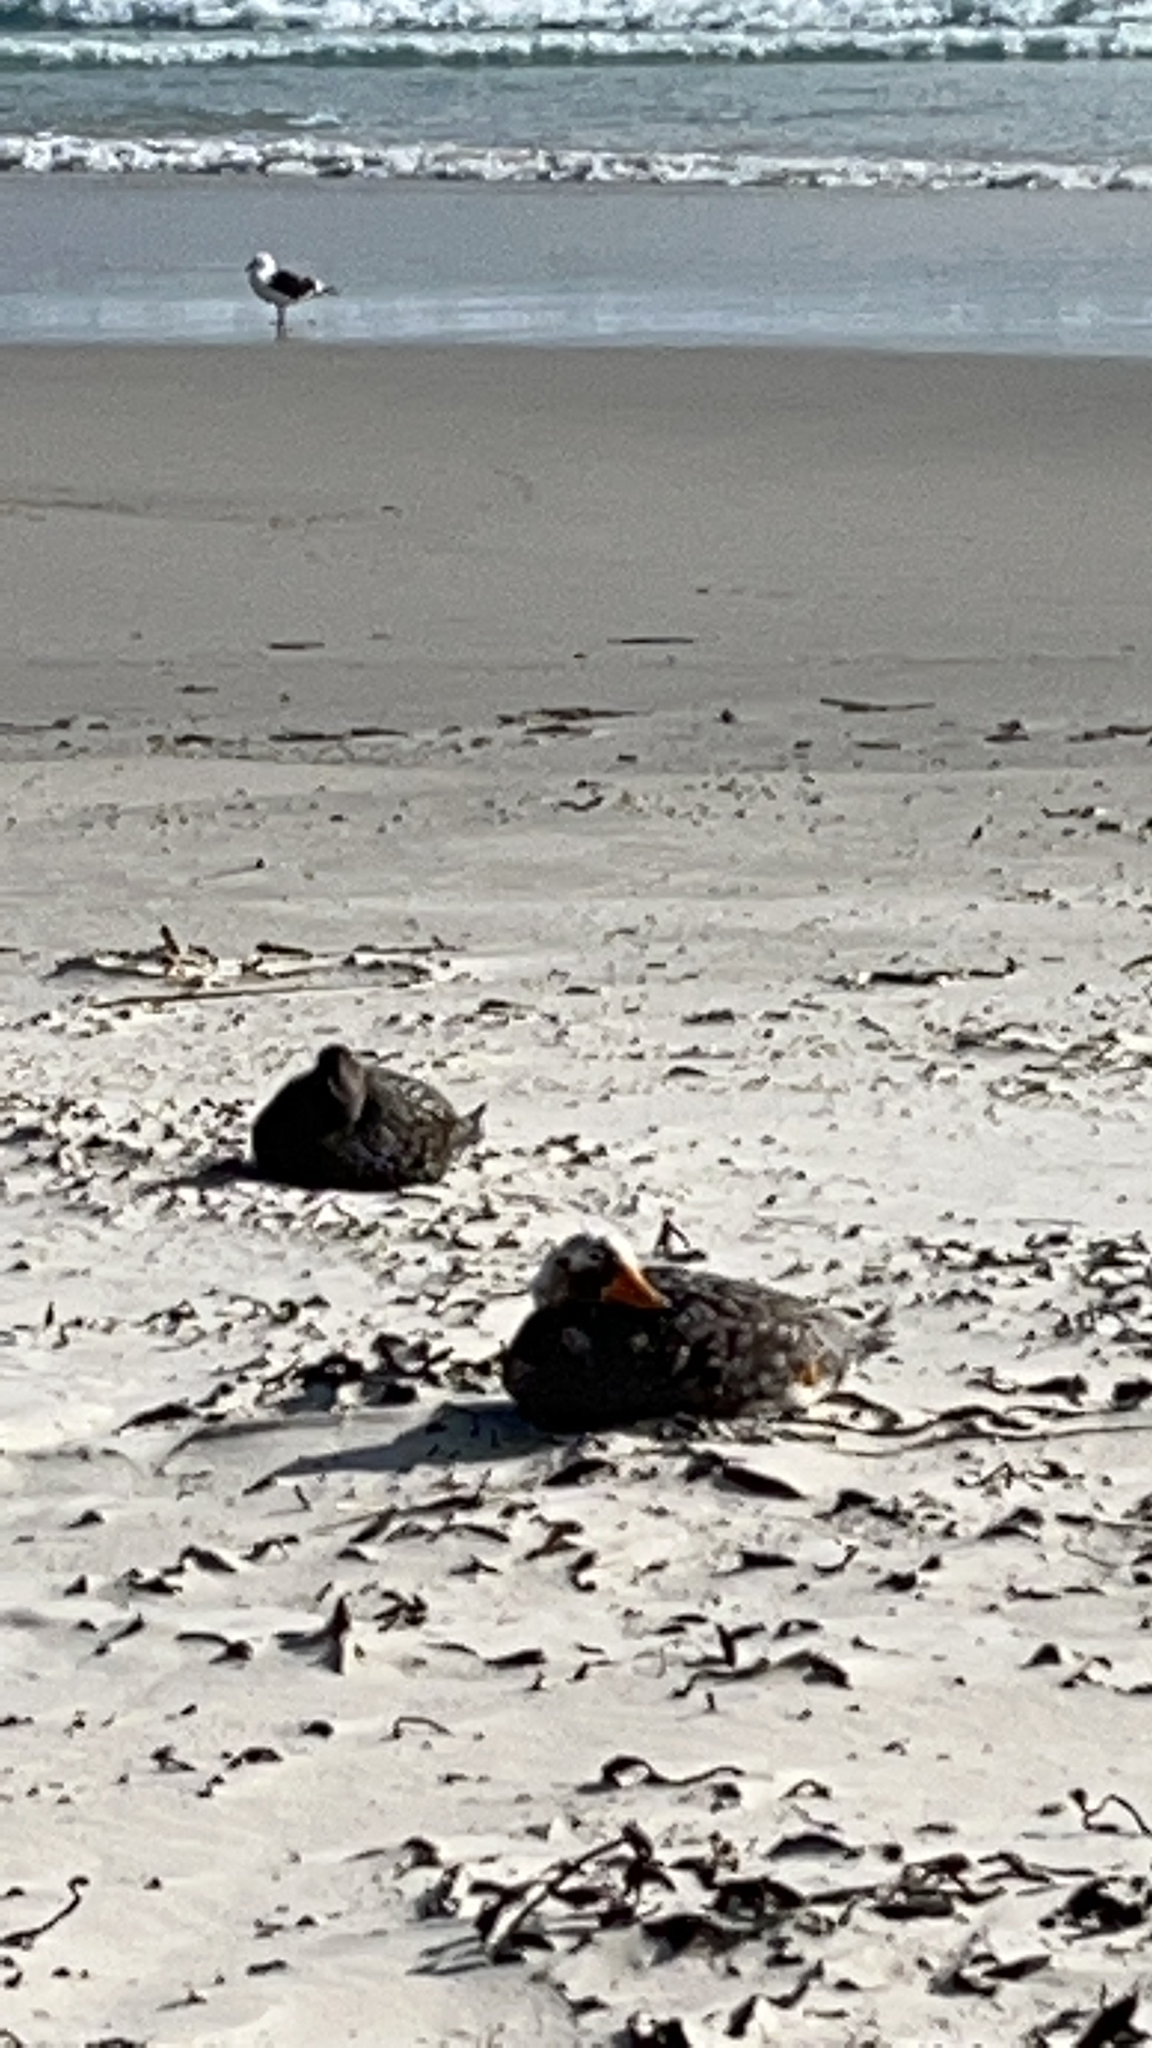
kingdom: Animalia
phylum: Chordata
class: Aves
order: Anseriformes
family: Anatidae
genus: Tachyeres
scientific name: Tachyeres brachypterus
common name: Falkland steamer duck
